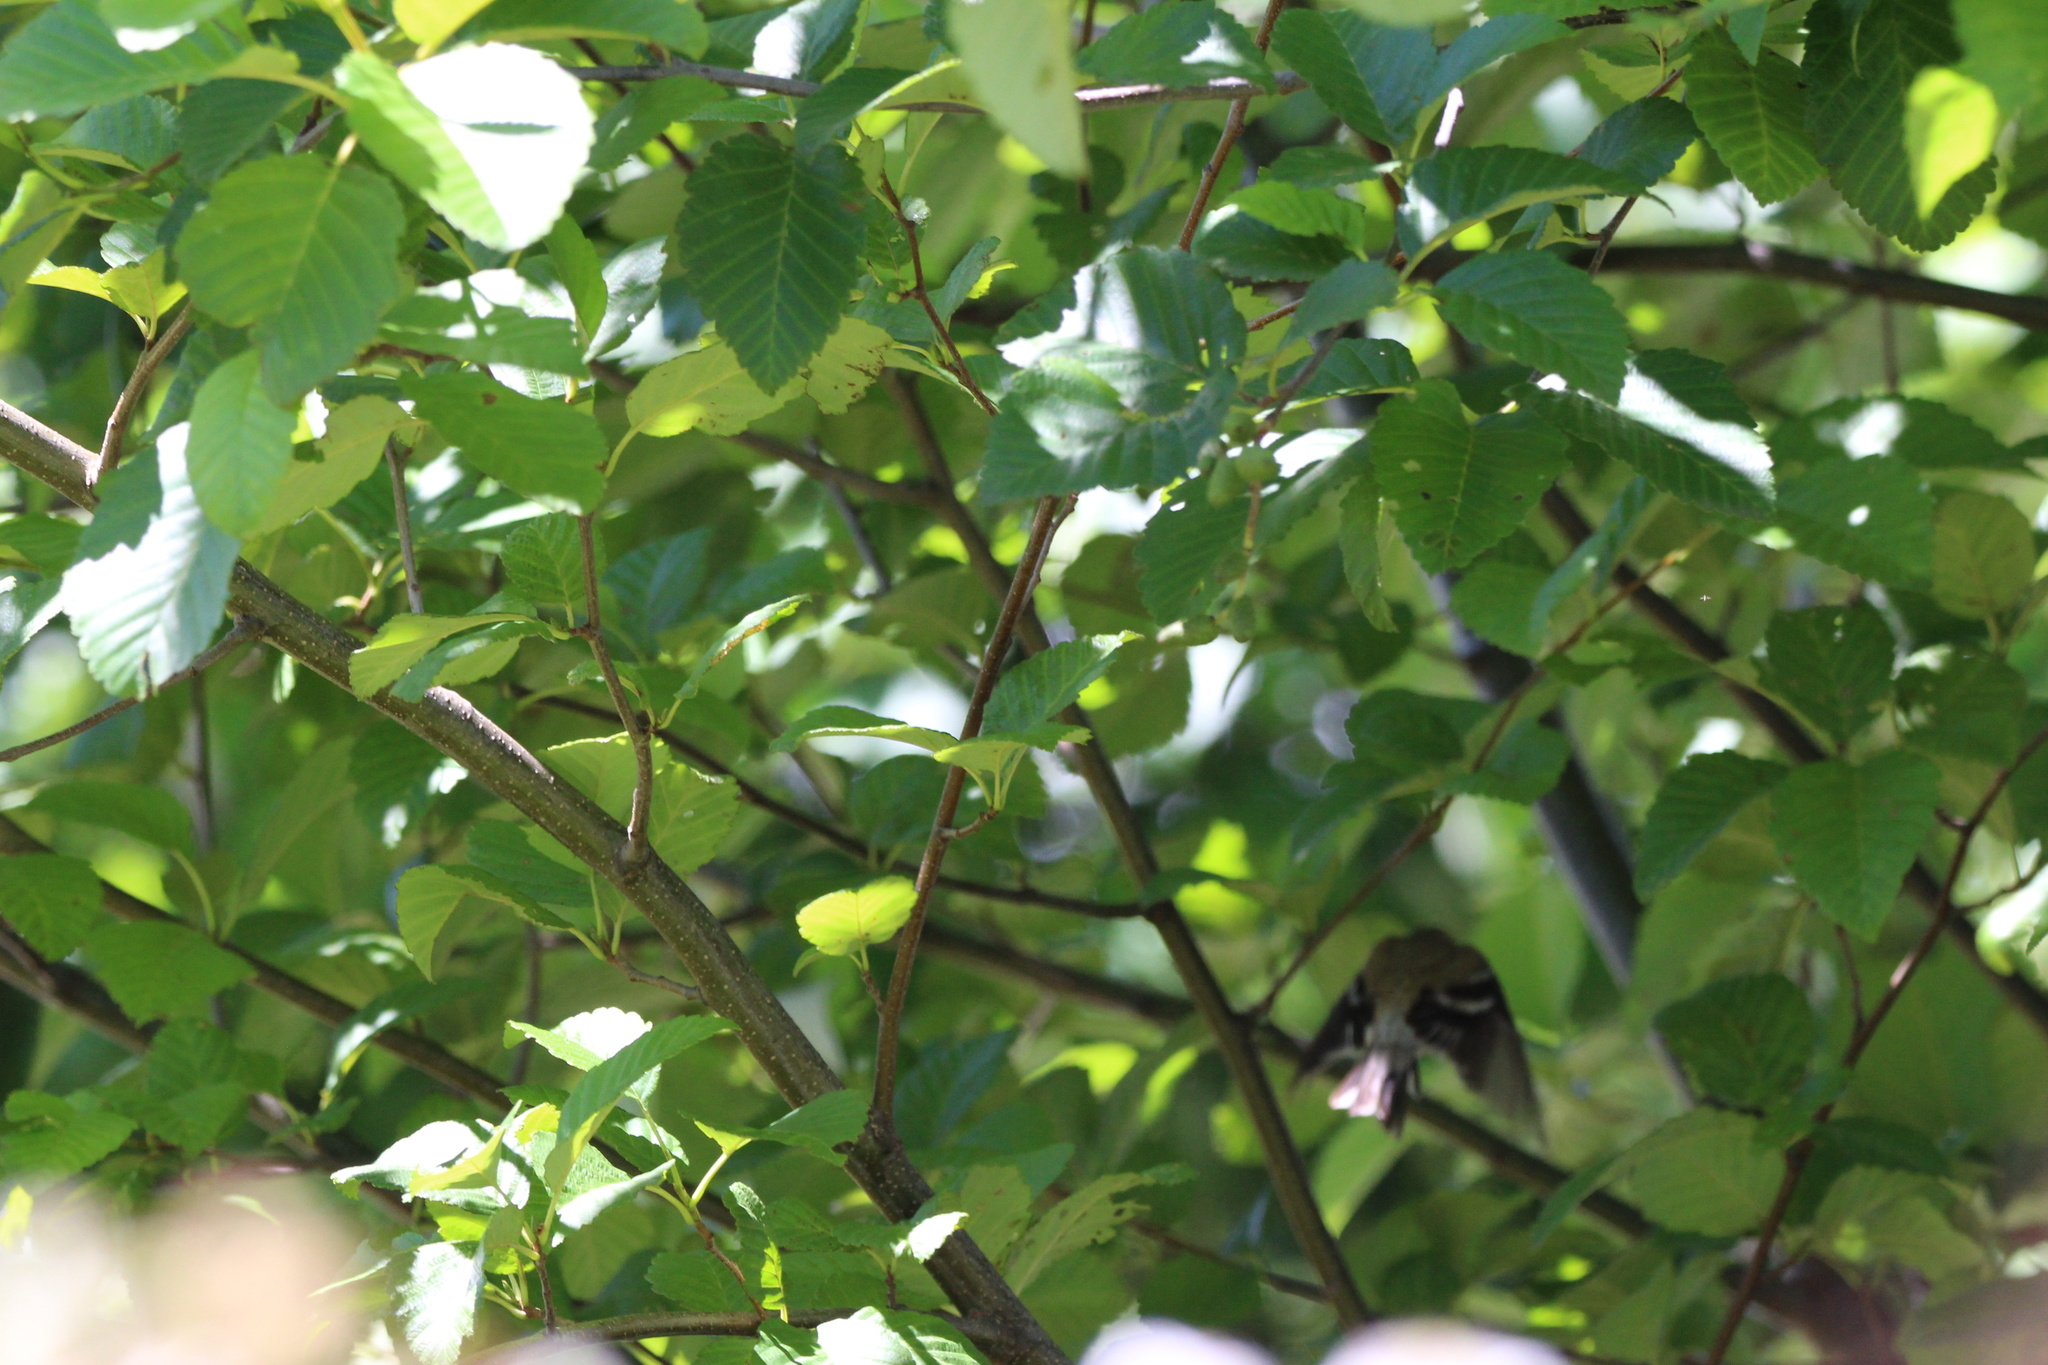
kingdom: Animalia
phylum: Chordata
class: Aves
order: Passeriformes
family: Fringillidae
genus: Spinus
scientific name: Spinus tristis
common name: American goldfinch
